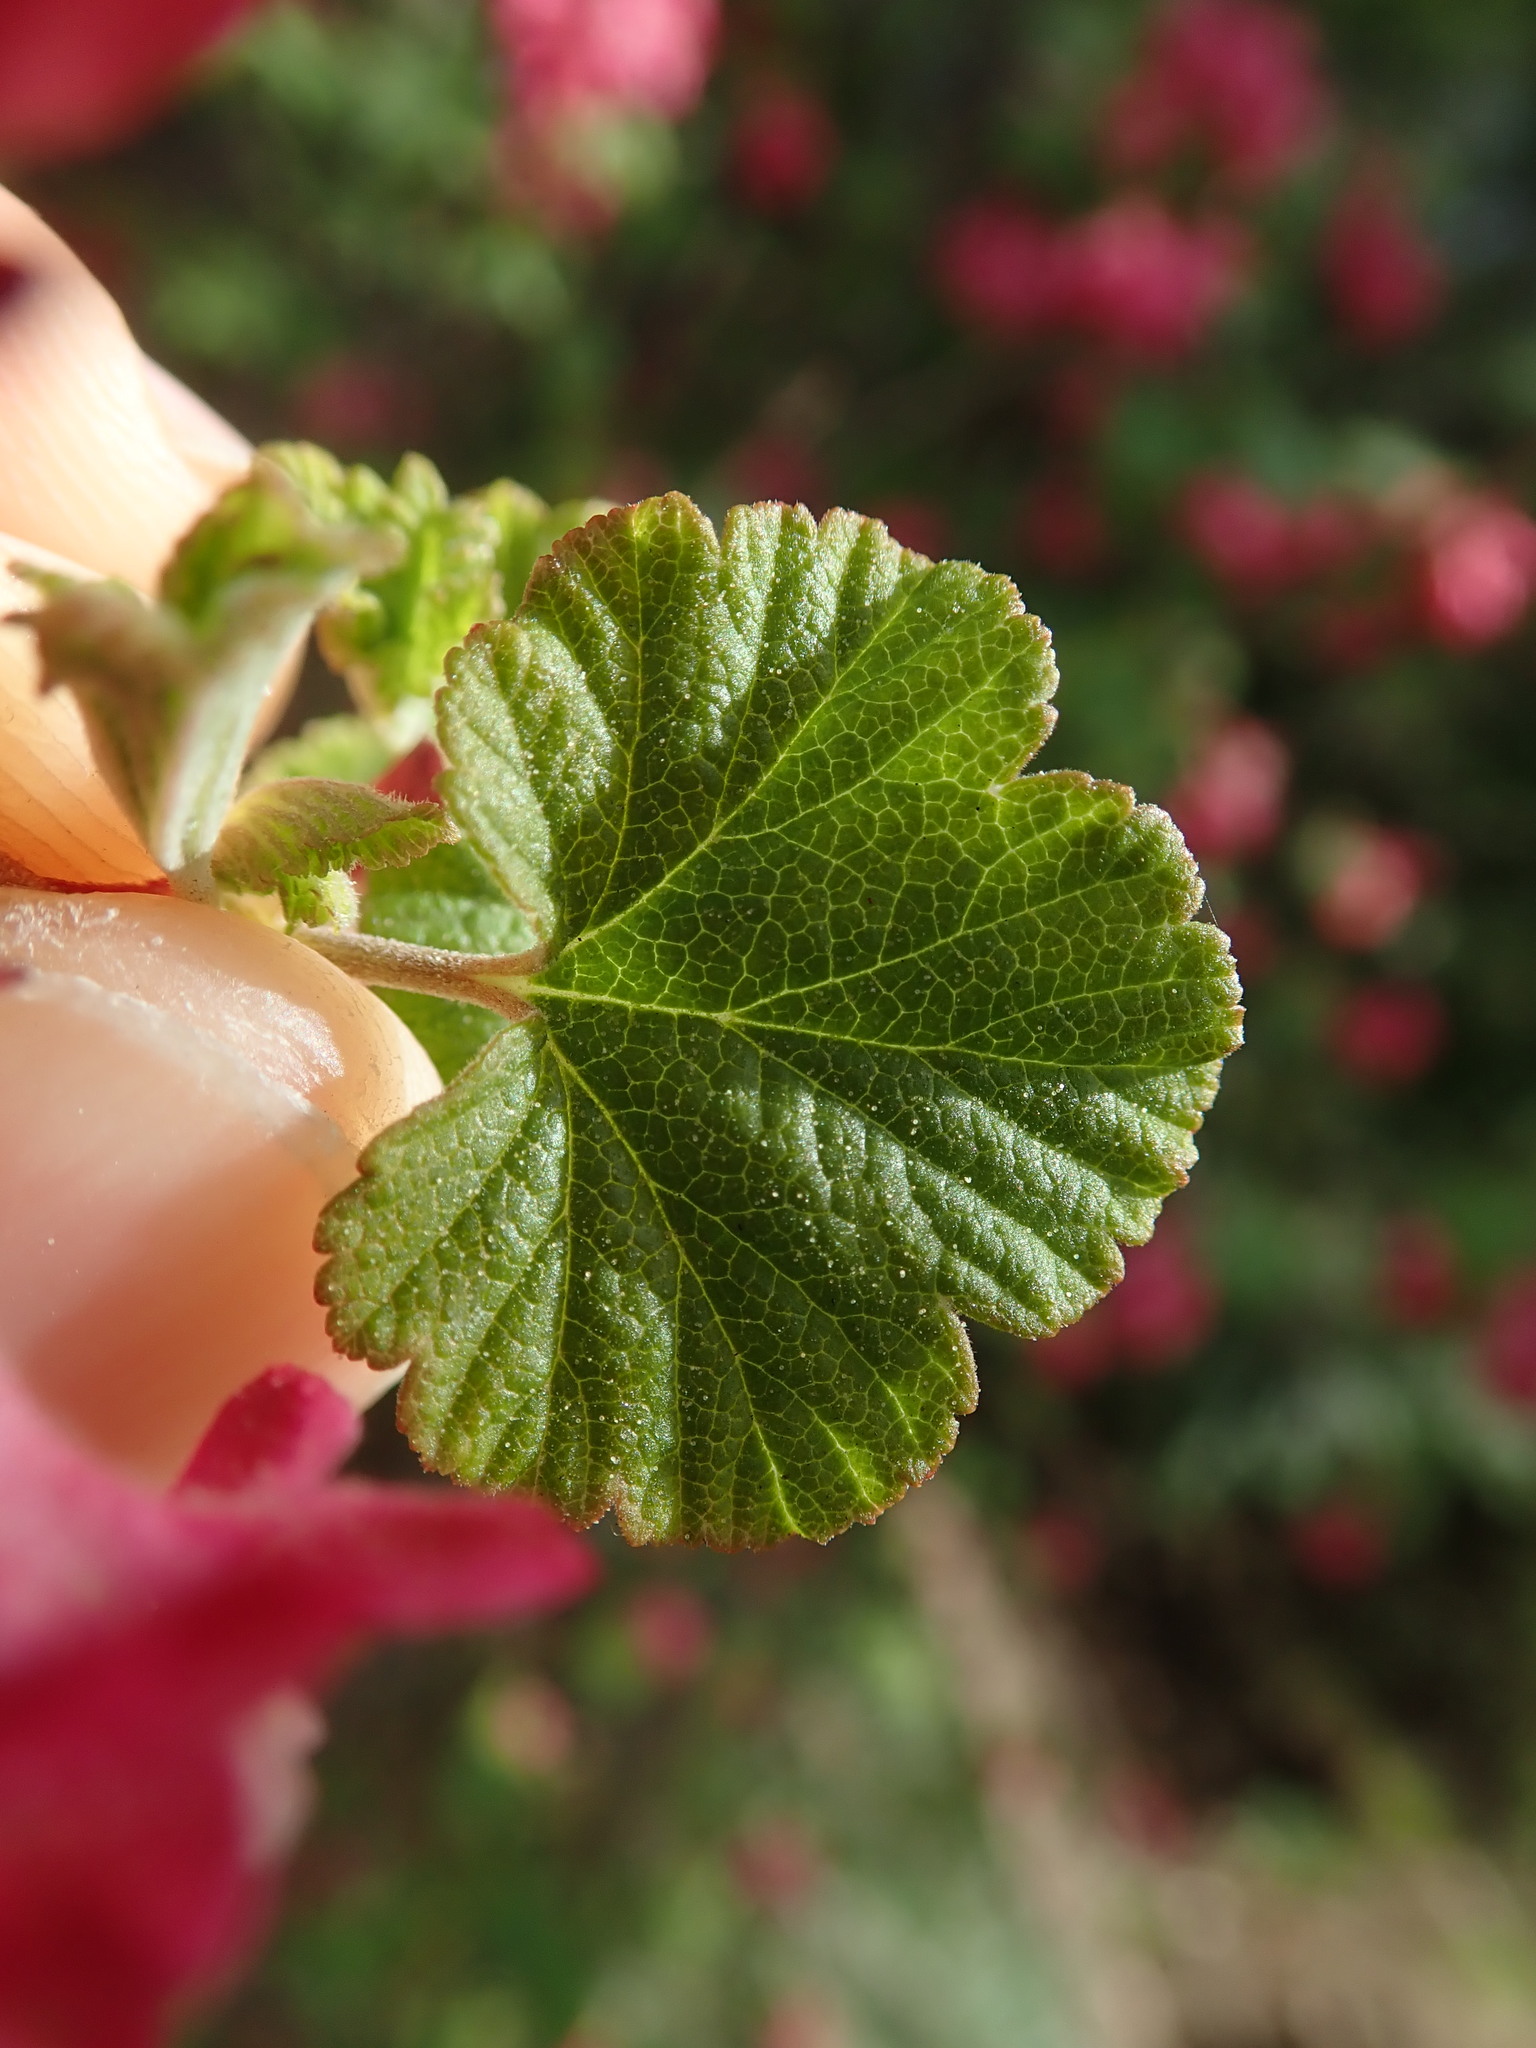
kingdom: Plantae
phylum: Tracheophyta
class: Magnoliopsida
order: Saxifragales
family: Grossulariaceae
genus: Ribes
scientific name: Ribes sanguineum
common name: Flowering currant
